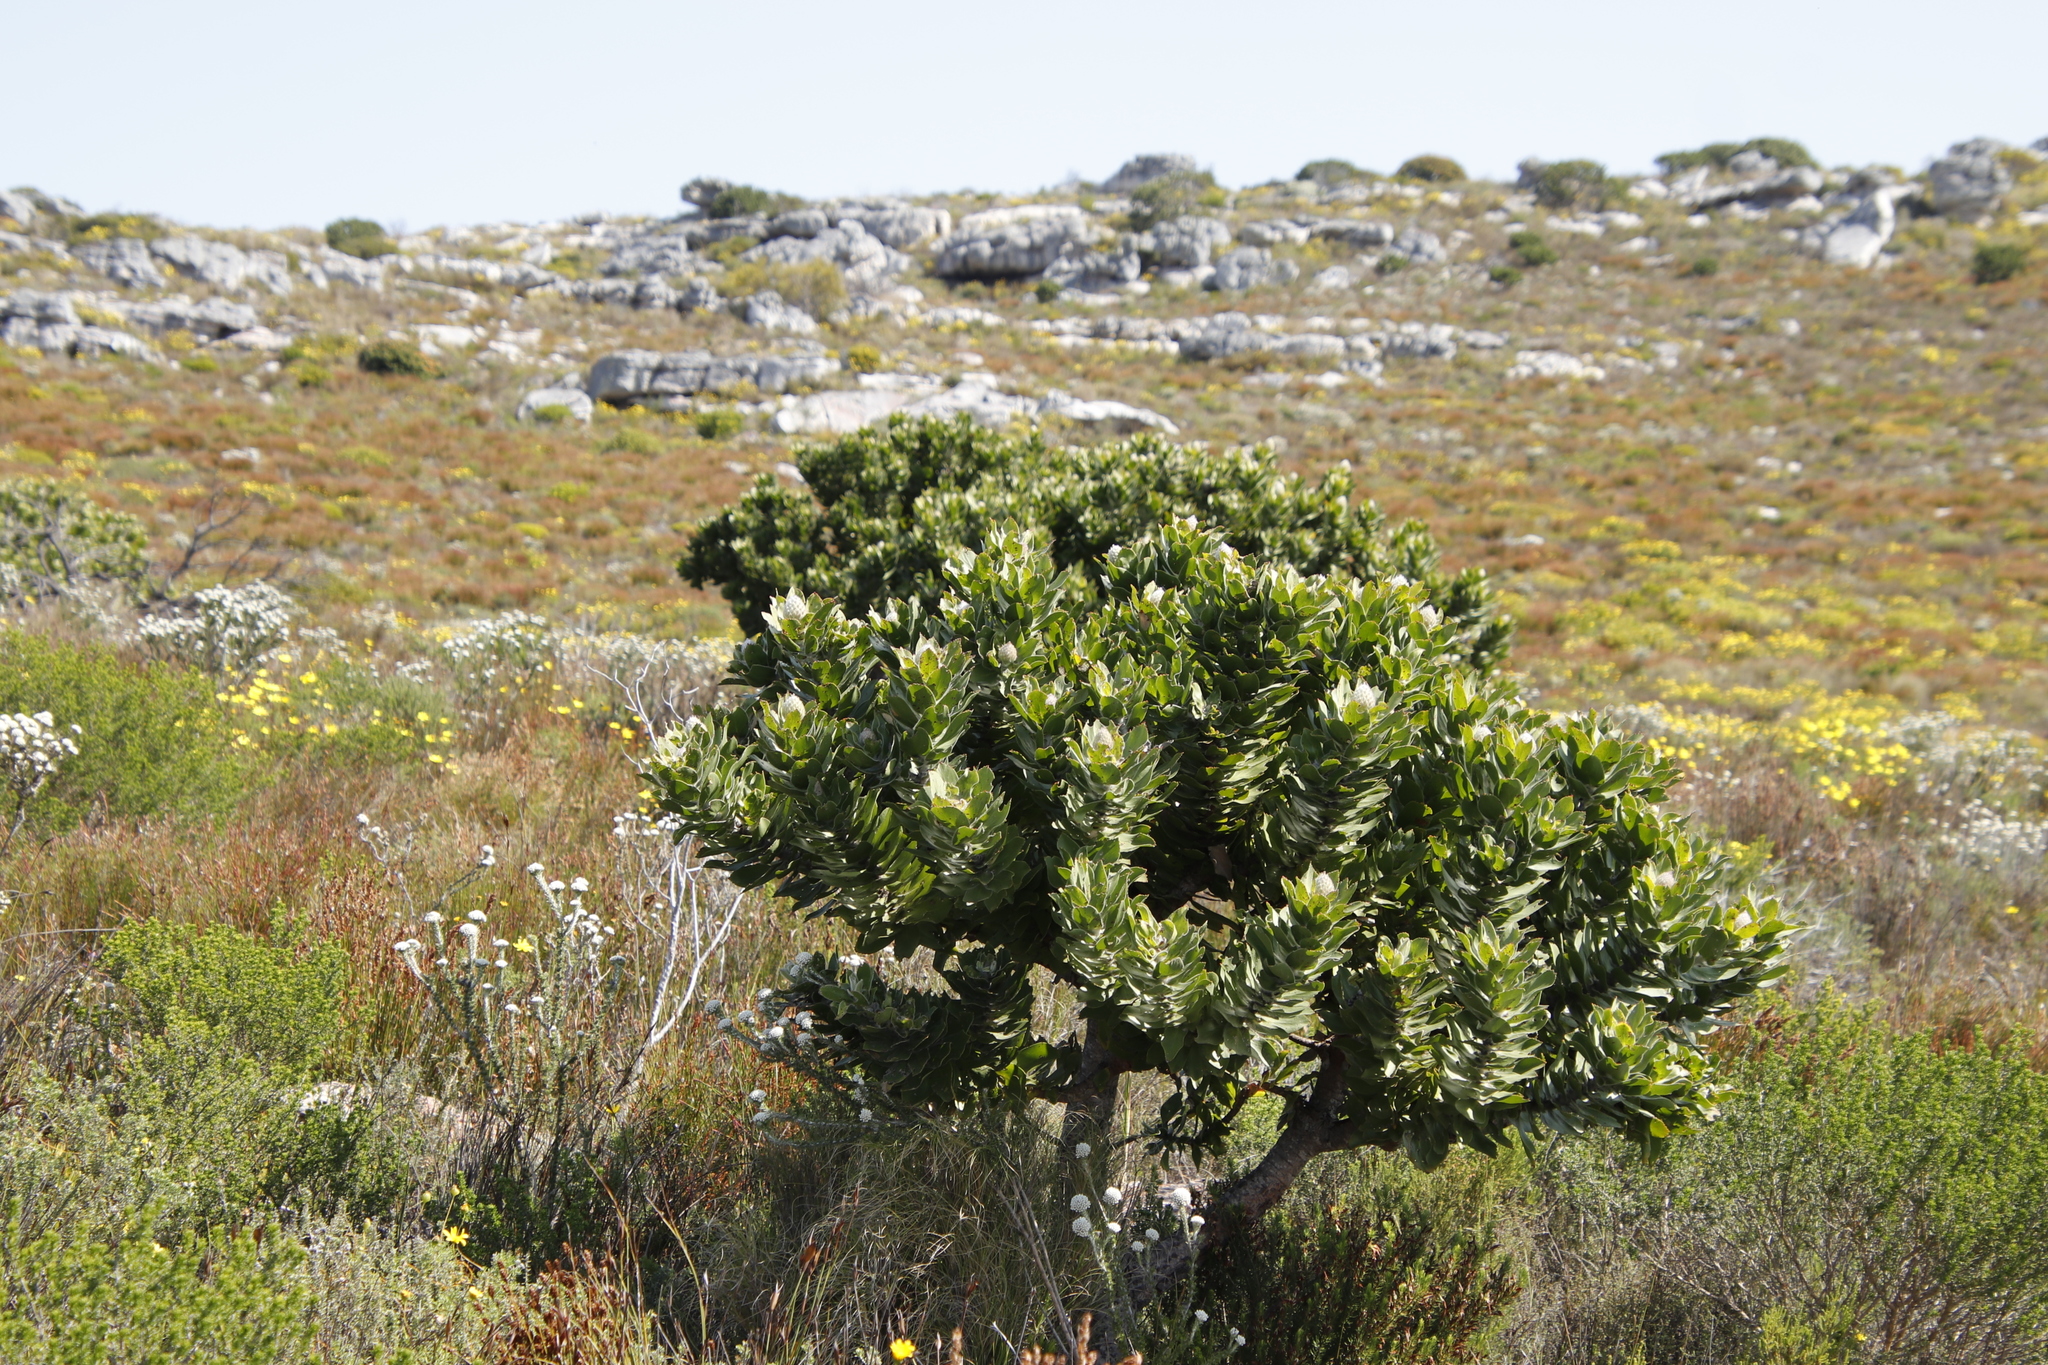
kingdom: Plantae
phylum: Tracheophyta
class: Magnoliopsida
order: Proteales
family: Proteaceae
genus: Leucospermum
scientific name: Leucospermum conocarpodendron
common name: Tree pincushion
